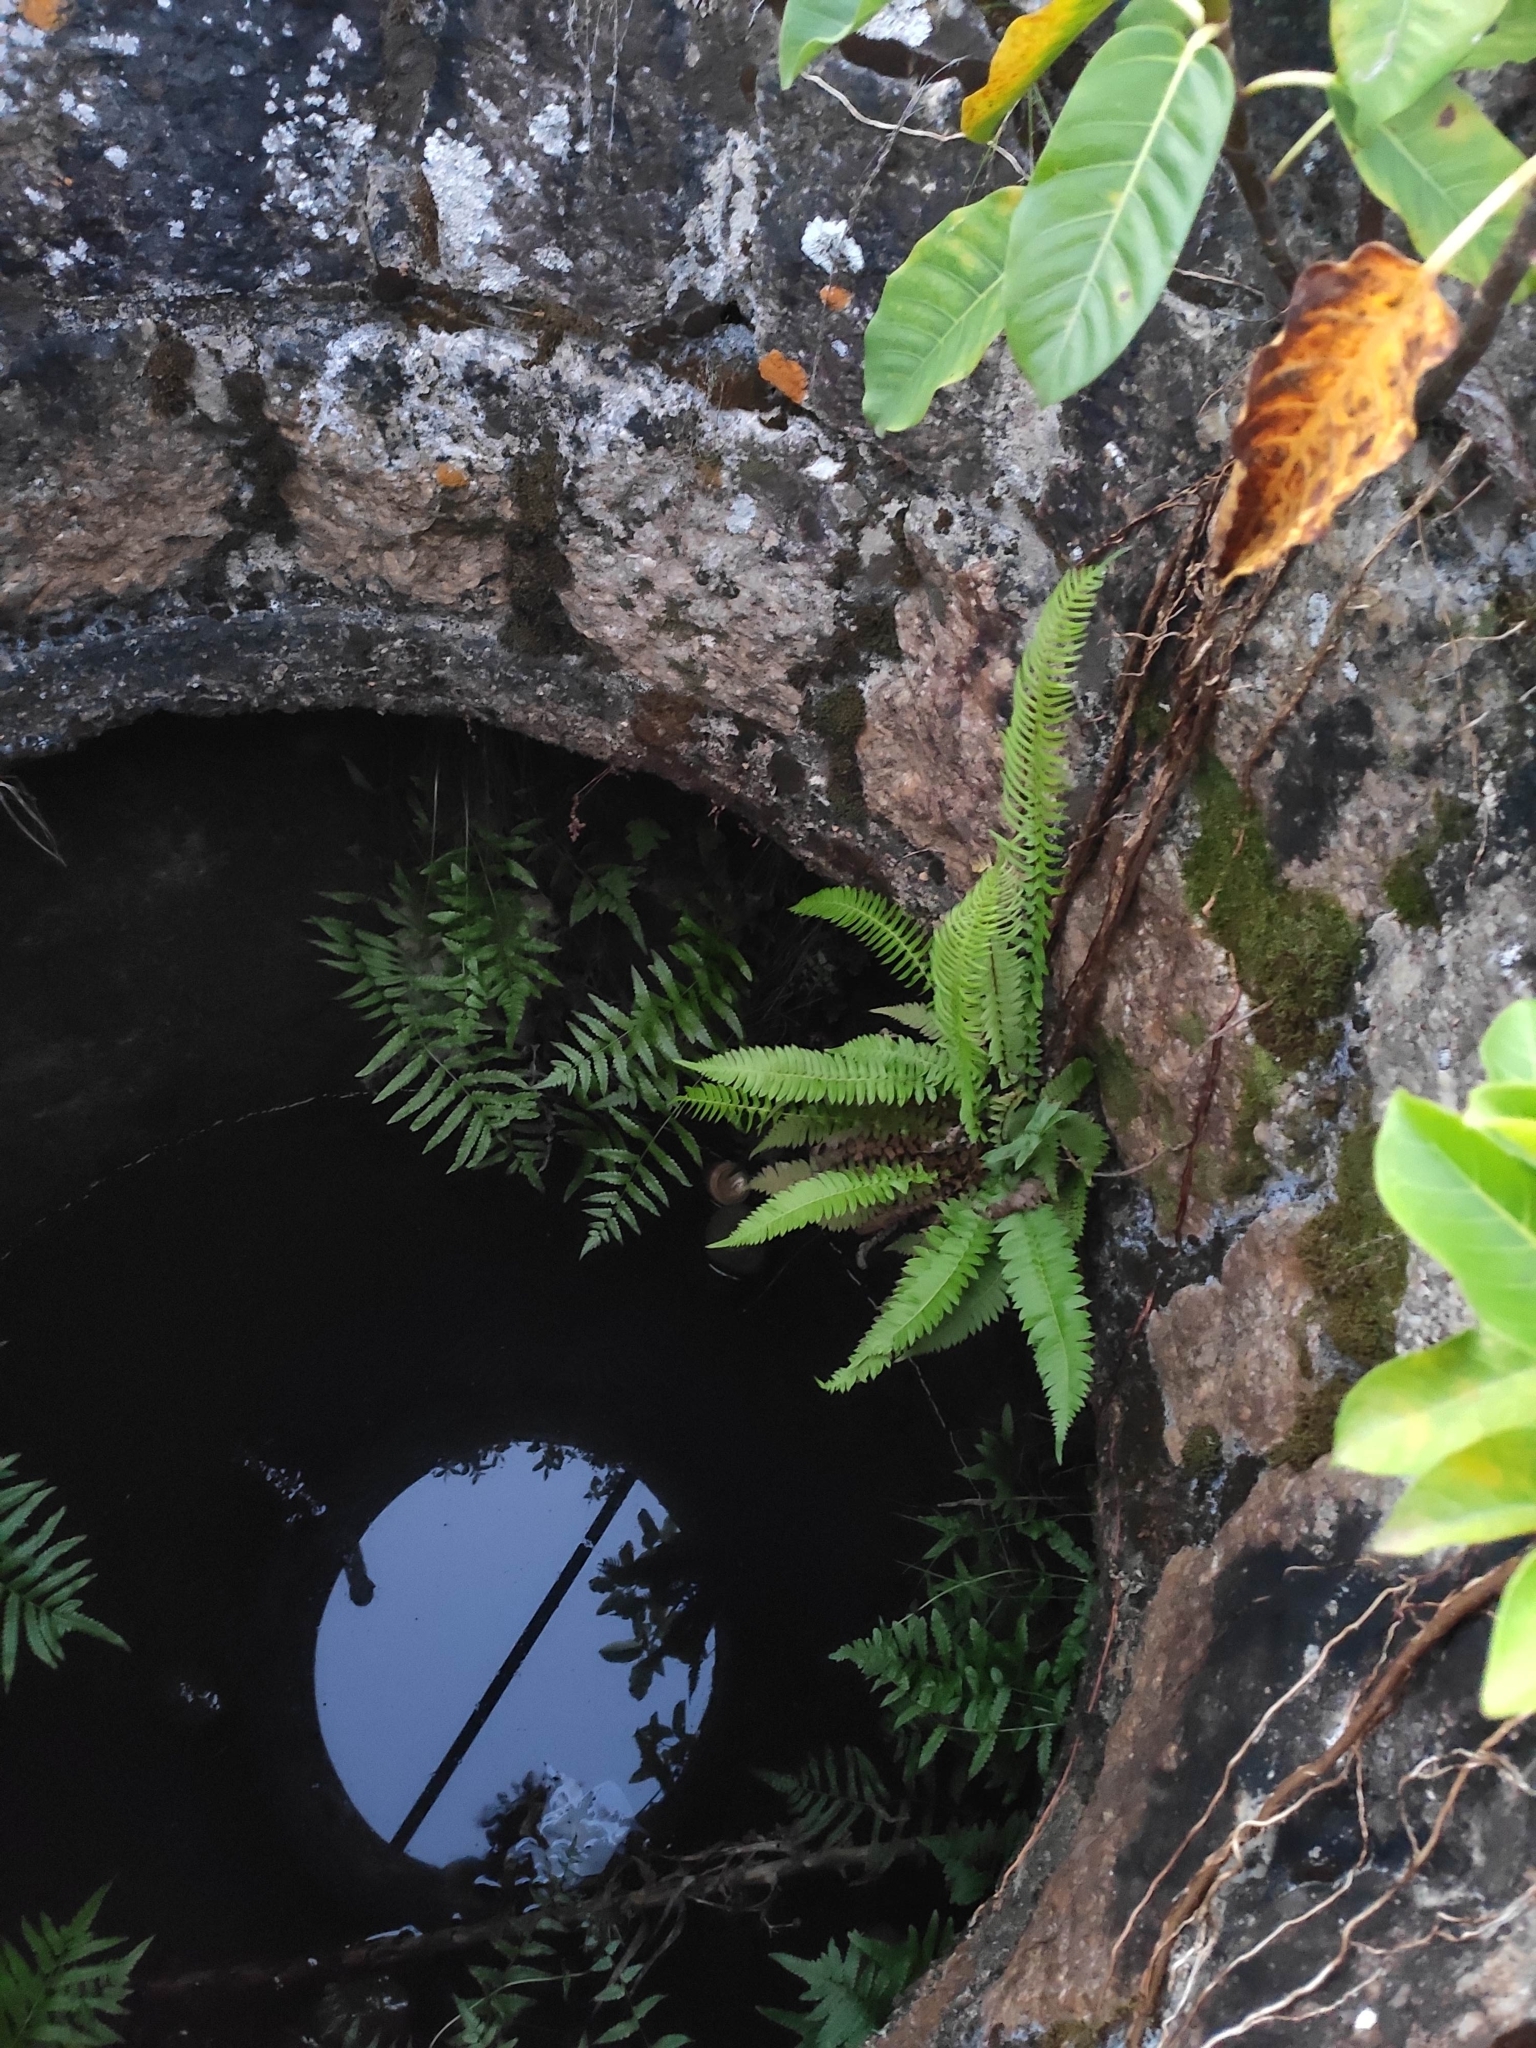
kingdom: Plantae
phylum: Tracheophyta
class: Polypodiopsida
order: Polypodiales
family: Blechnaceae
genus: Blechnum
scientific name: Blechnum auriculatum
